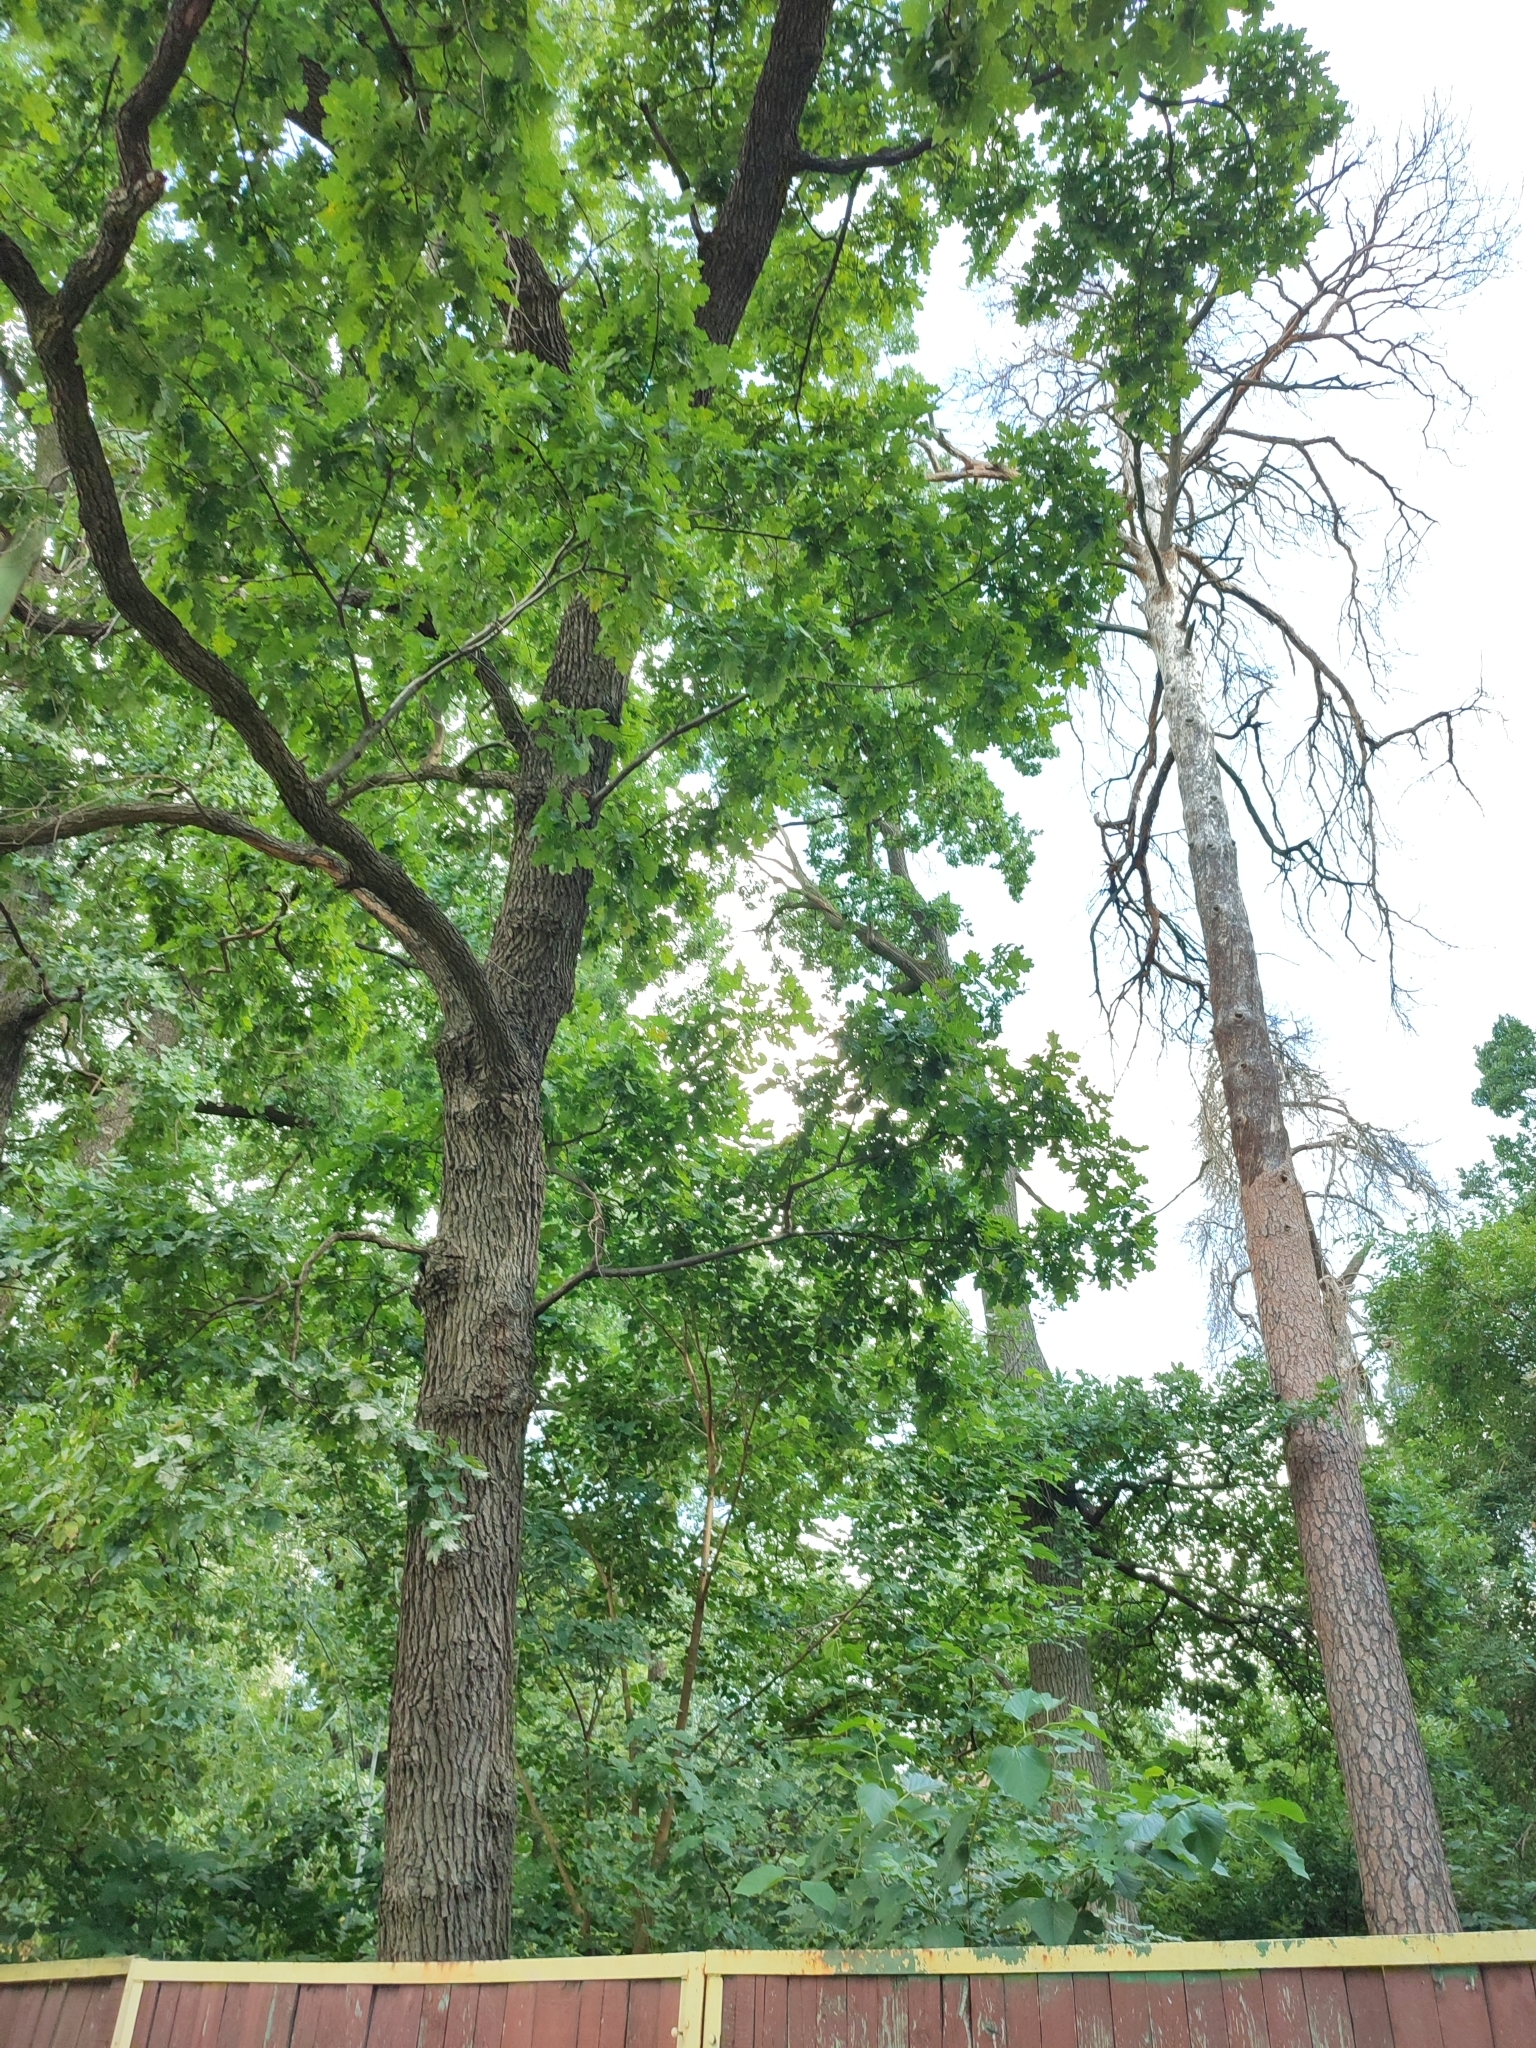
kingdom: Plantae
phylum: Tracheophyta
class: Magnoliopsida
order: Fagales
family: Fagaceae
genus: Quercus
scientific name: Quercus robur
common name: Pedunculate oak
